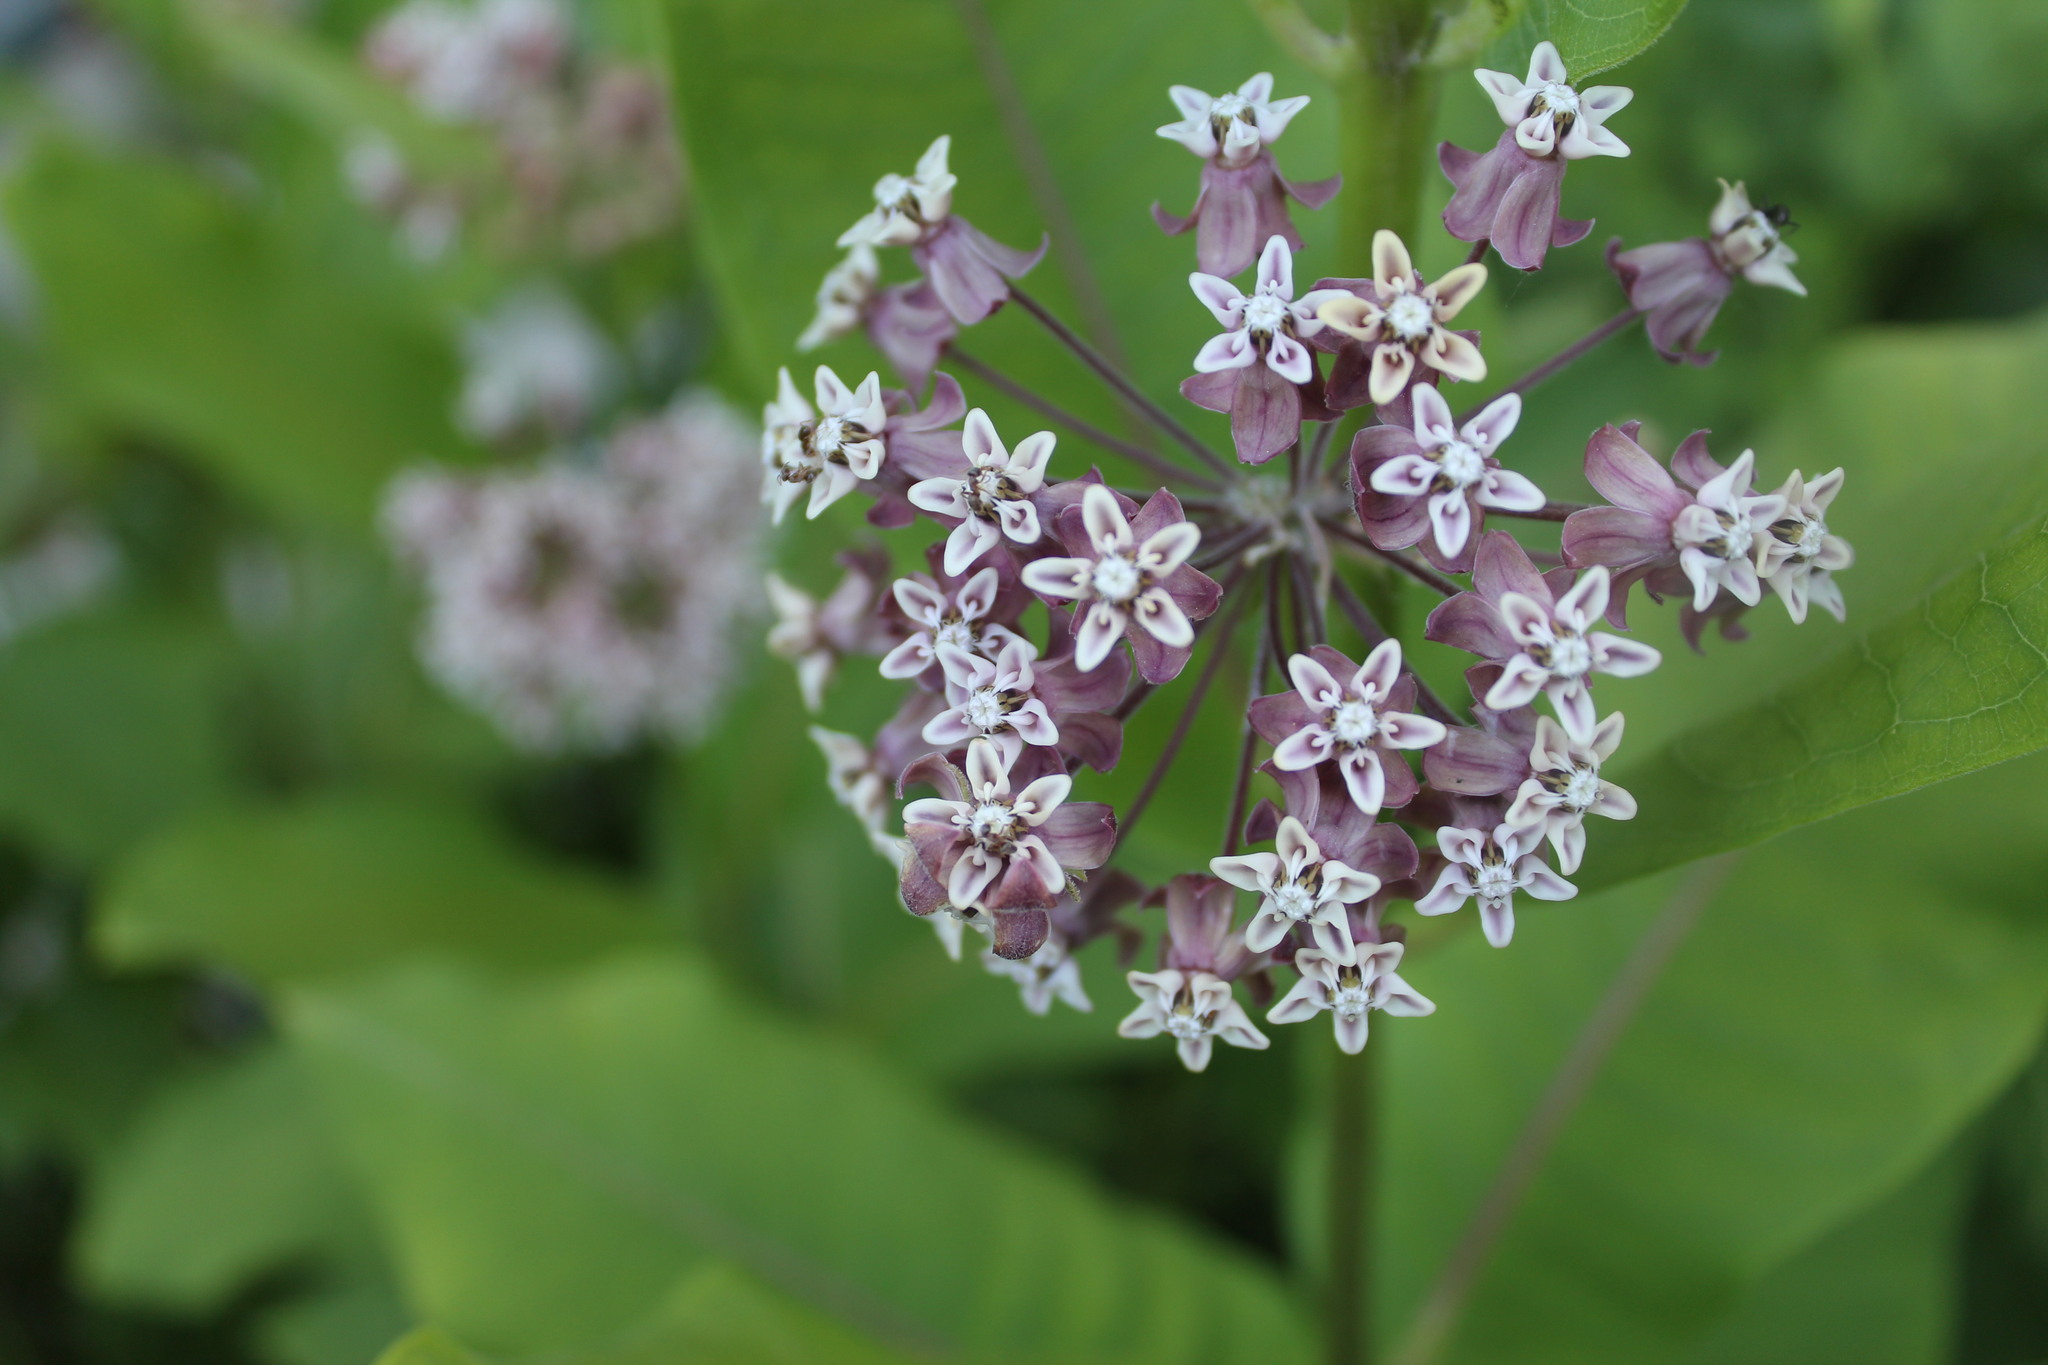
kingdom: Plantae
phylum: Tracheophyta
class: Magnoliopsida
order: Gentianales
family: Apocynaceae
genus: Asclepias
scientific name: Asclepias syriaca
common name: Common milkweed
